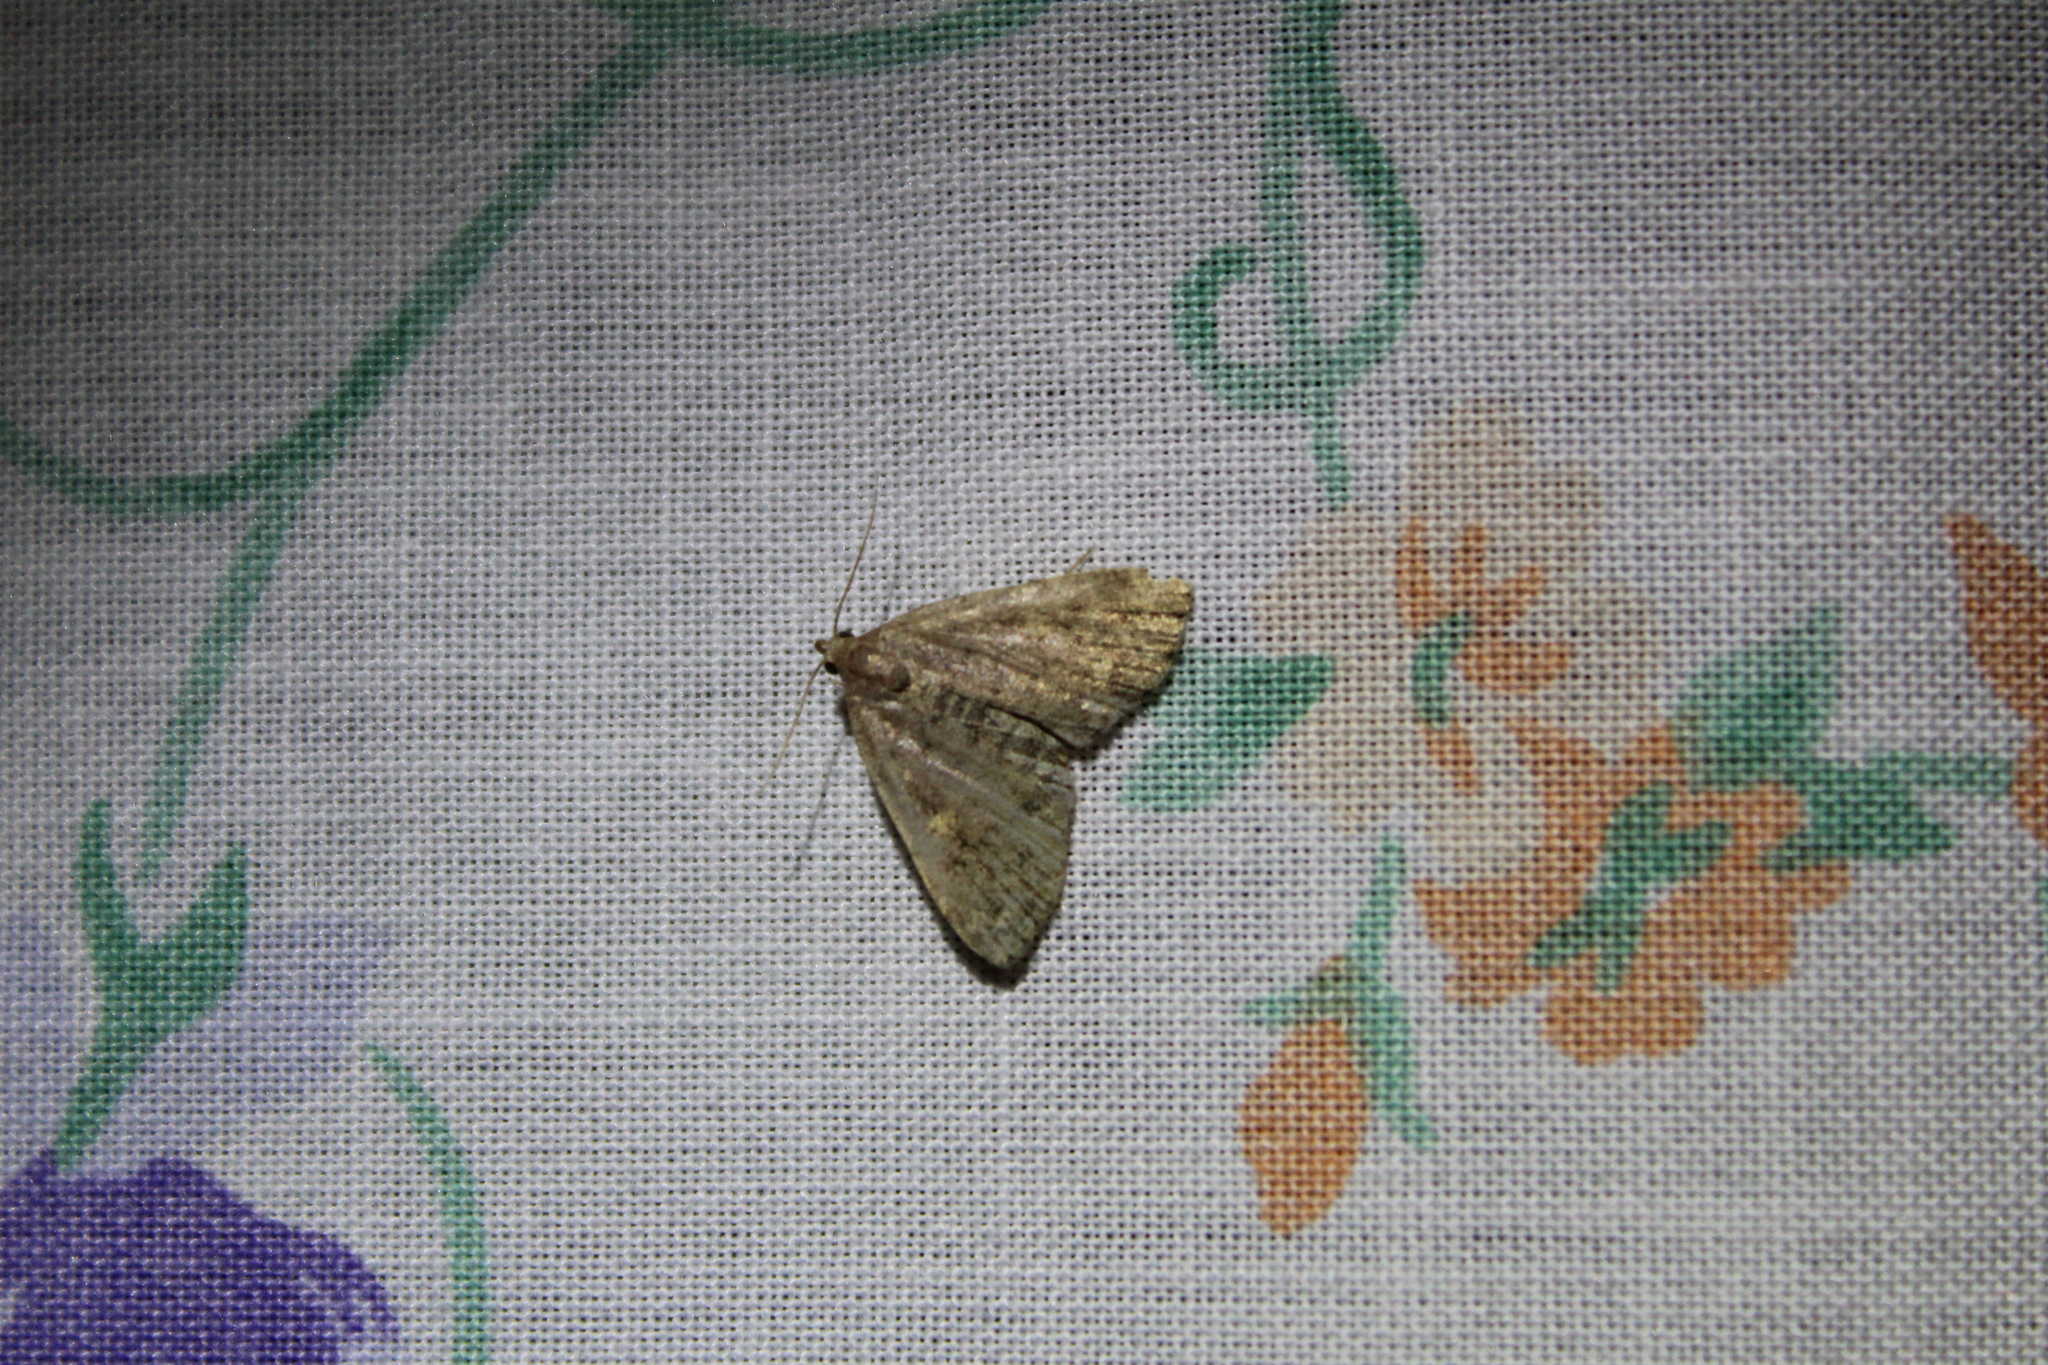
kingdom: Animalia
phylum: Arthropoda
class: Insecta
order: Lepidoptera
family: Erebidae
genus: Idia
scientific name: Idia aemula
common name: Common idia moth
